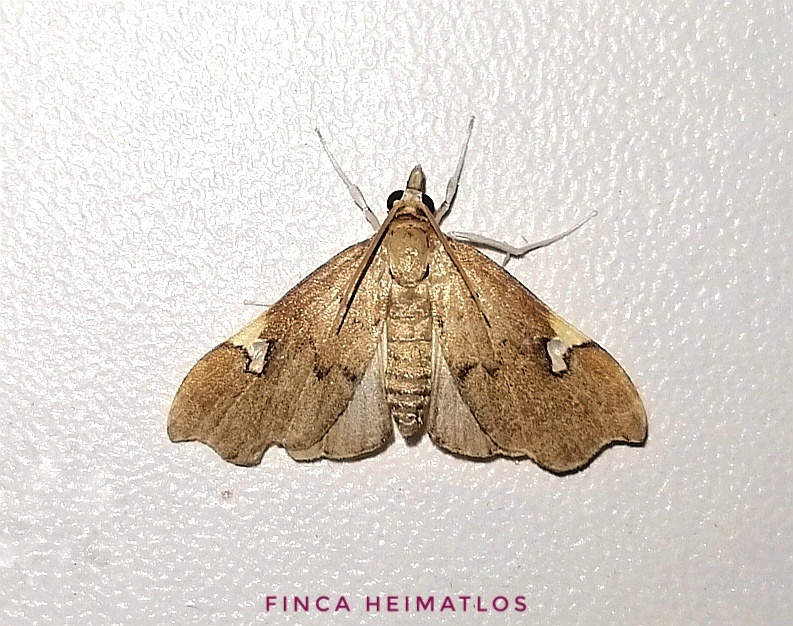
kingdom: Animalia
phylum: Arthropoda
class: Insecta
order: Lepidoptera
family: Crambidae
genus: Deuterophysa
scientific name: Deuterophysa asychanalis
